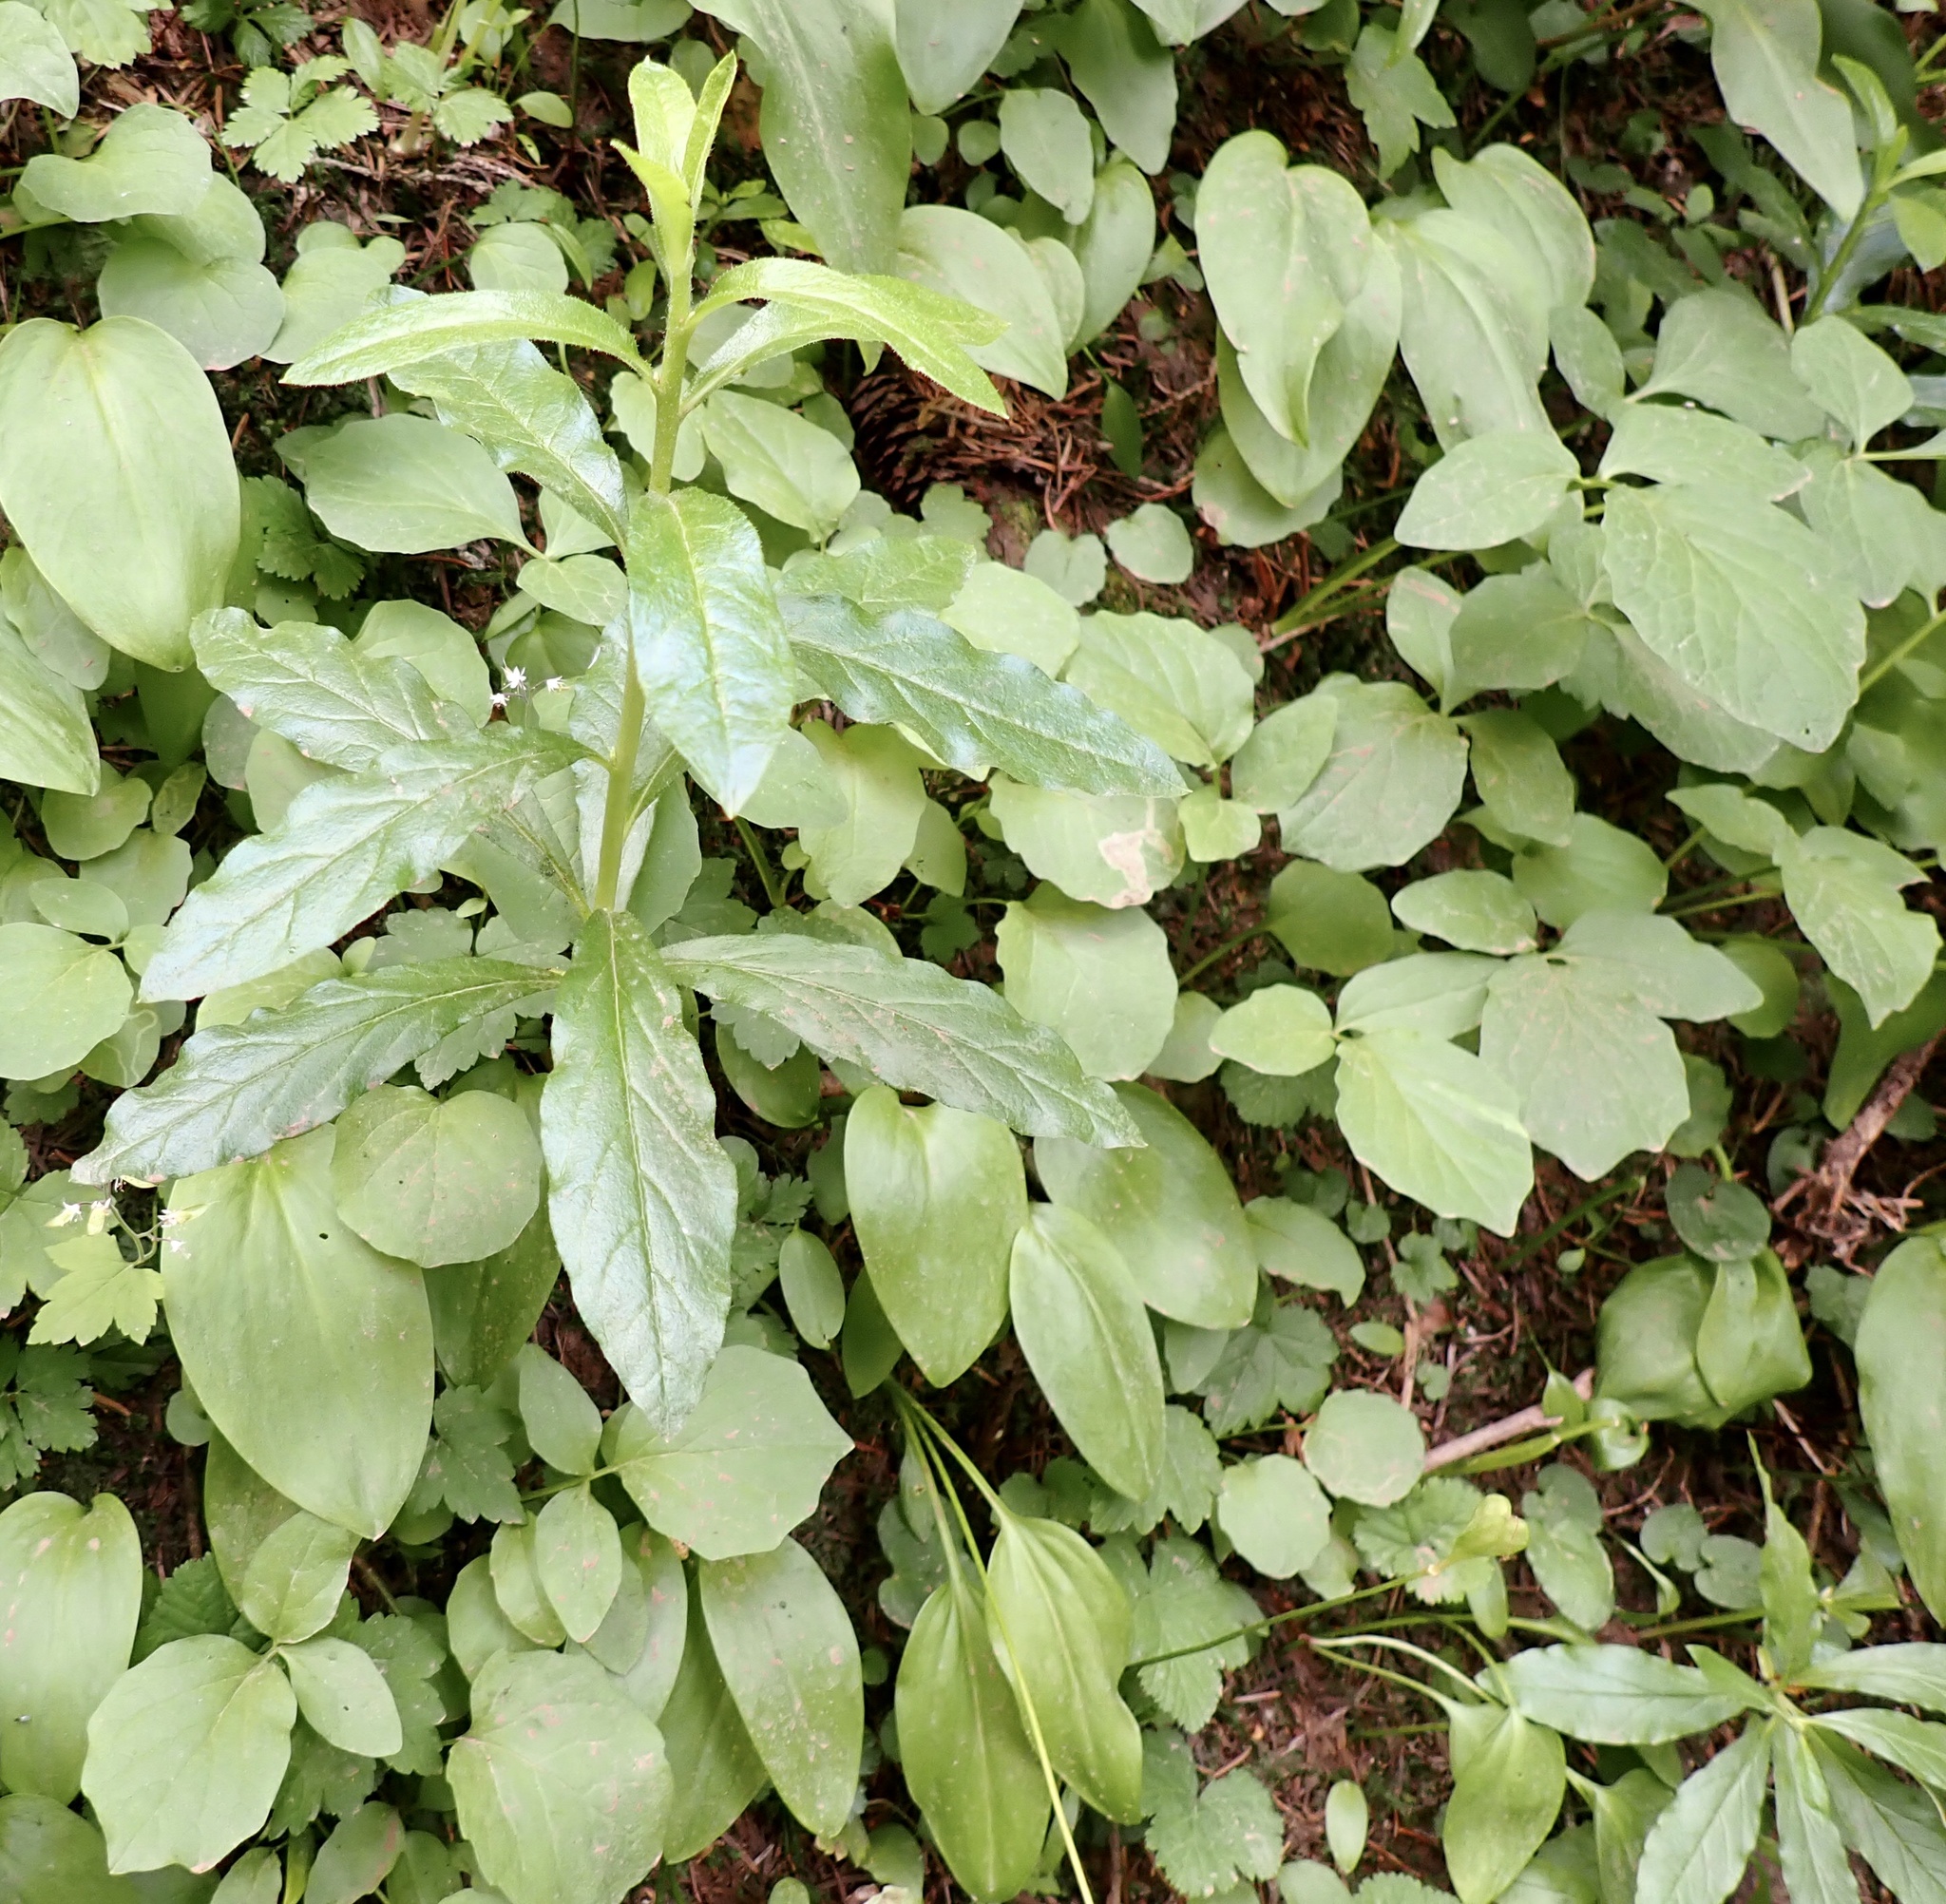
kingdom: Plantae
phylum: Tracheophyta
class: Magnoliopsida
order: Ericales
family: Ericaceae
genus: Rhododendron
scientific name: Rhododendron albiflorum
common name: White rhododendron
